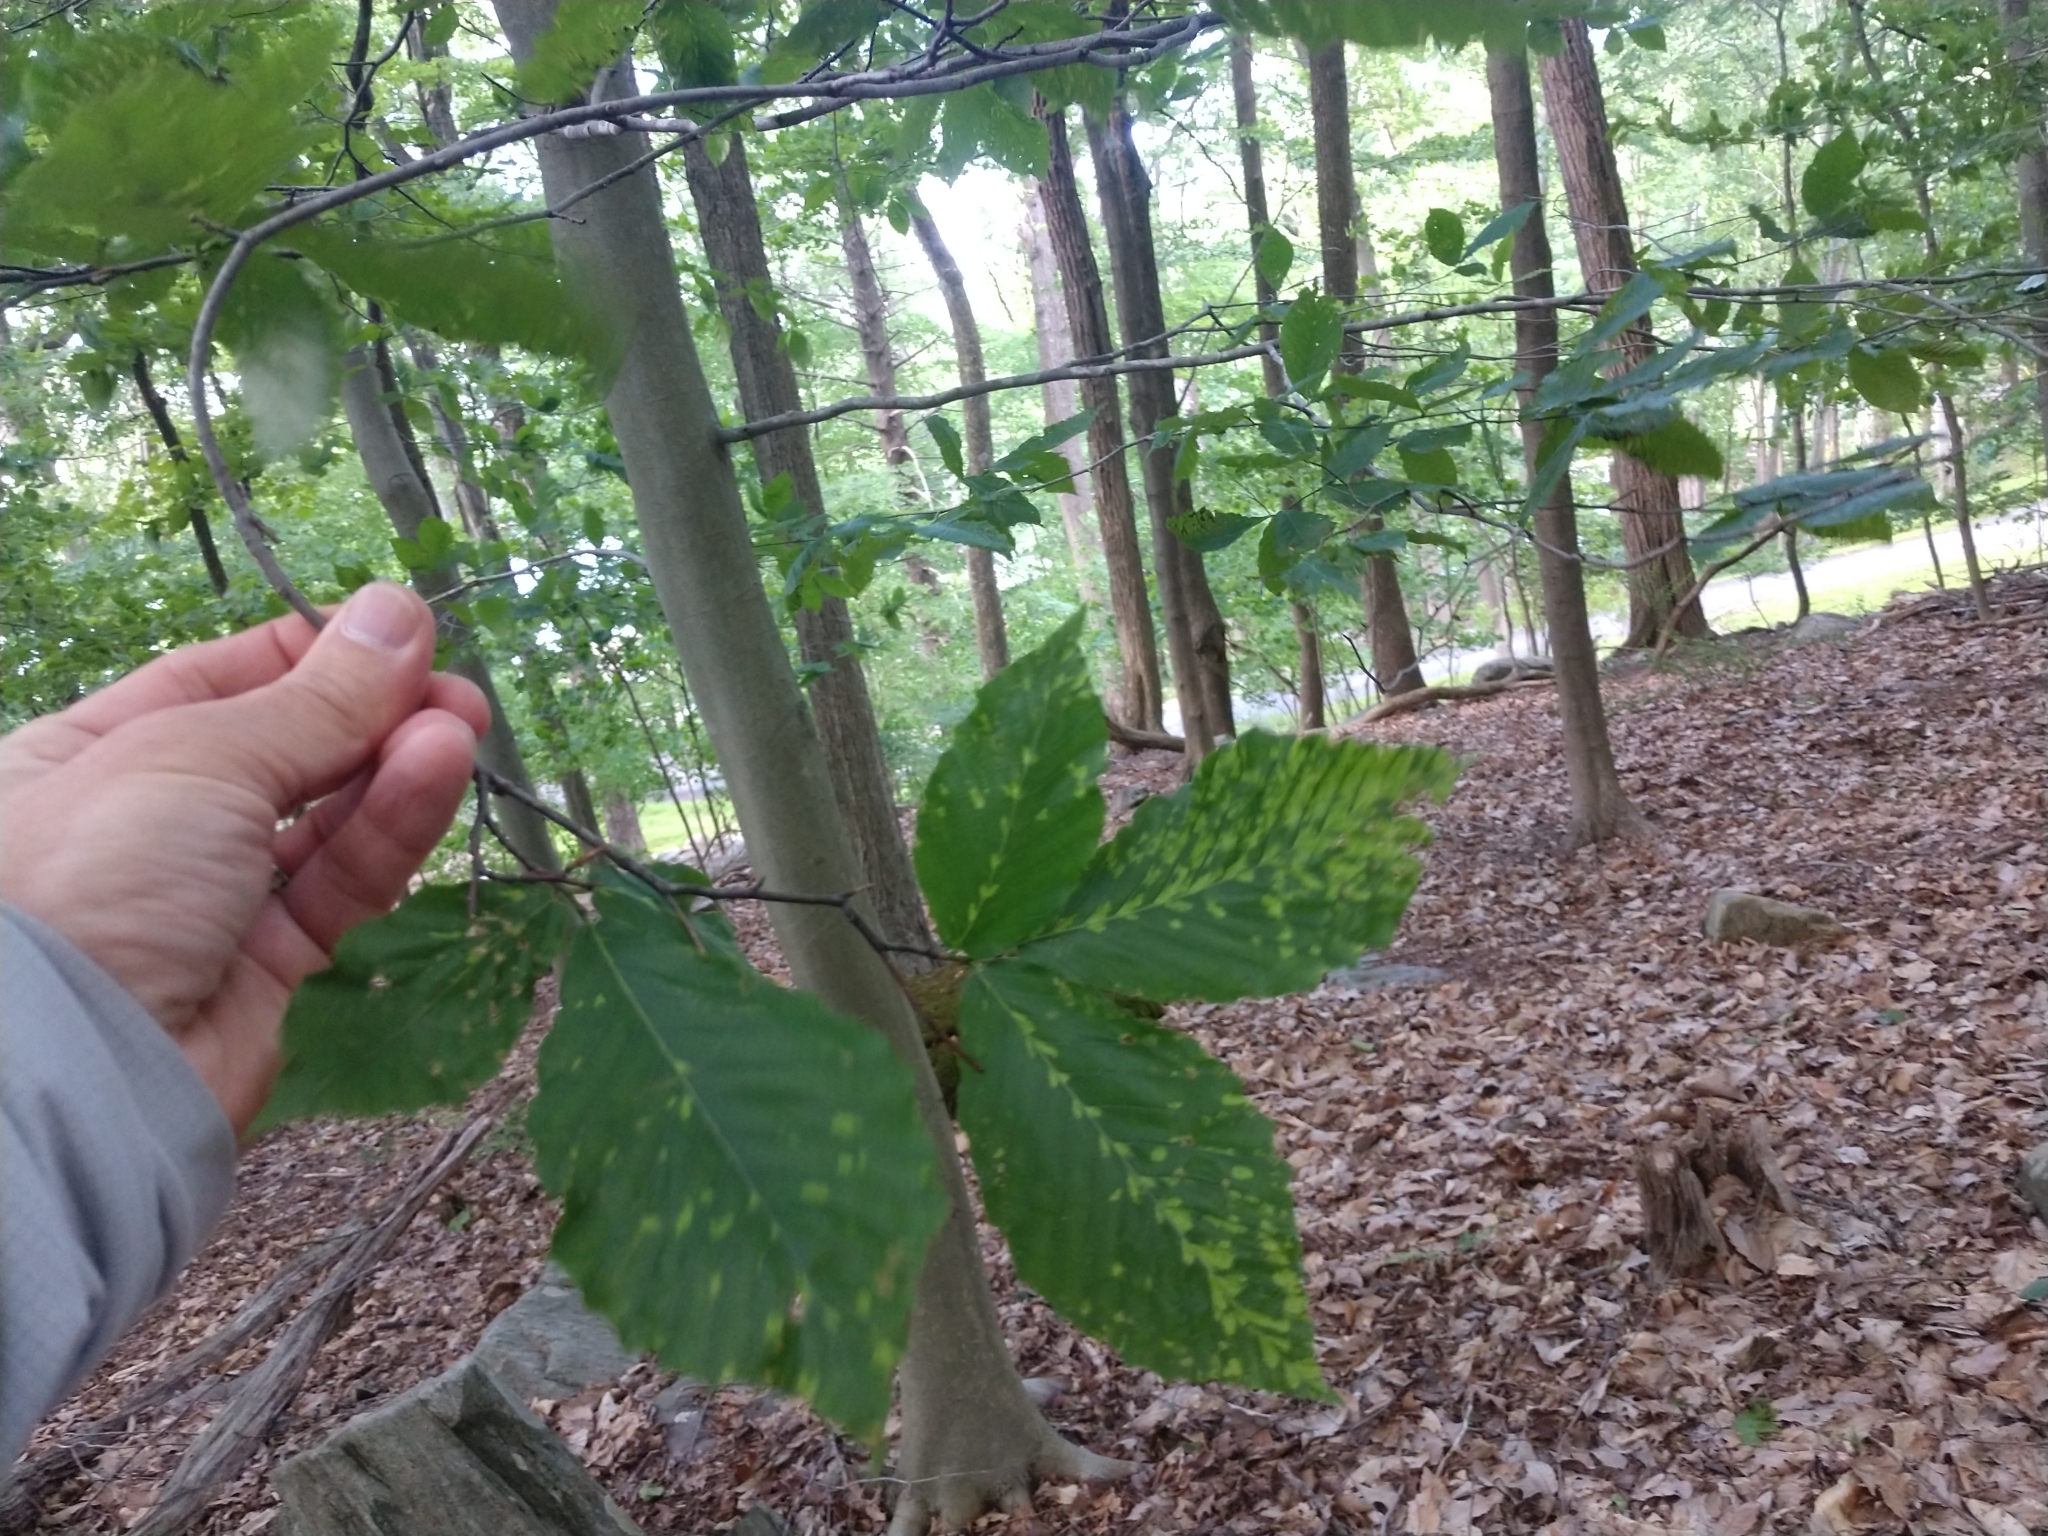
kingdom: Animalia
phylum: Arthropoda
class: Arachnida
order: Trombidiformes
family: Eriophyidae
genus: Acalitus
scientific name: Acalitus
